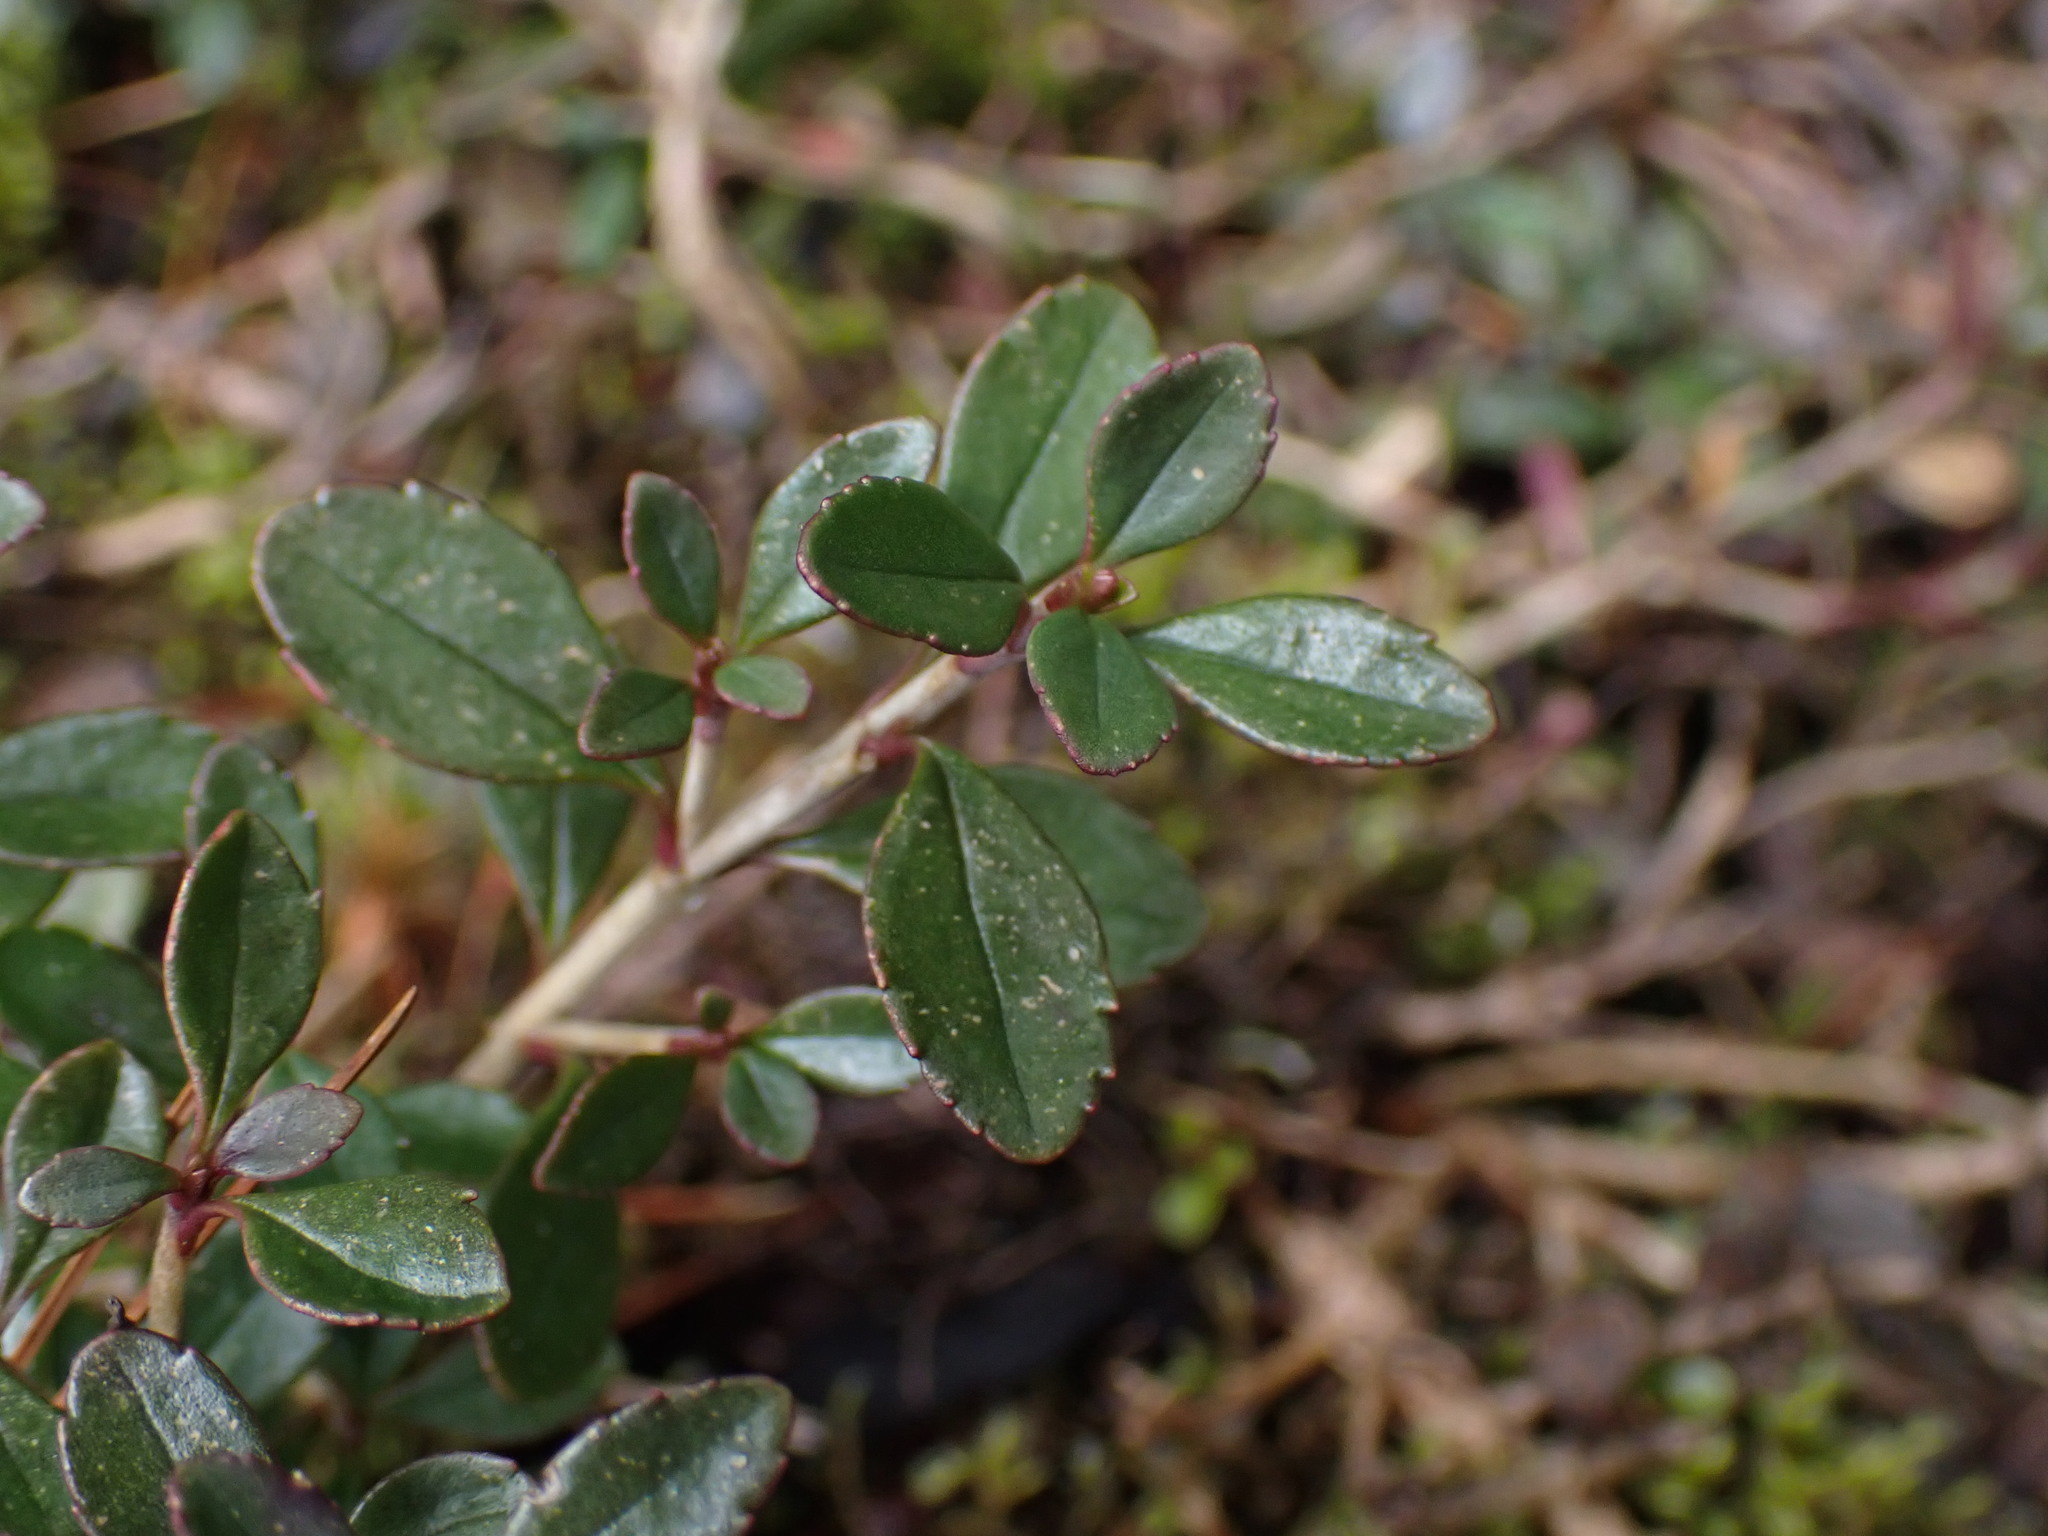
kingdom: Plantae
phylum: Tracheophyta
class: Magnoliopsida
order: Lamiales
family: Plantaginaceae
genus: Penstemon
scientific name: Penstemon davidsonii
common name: Davidson's penstemon
